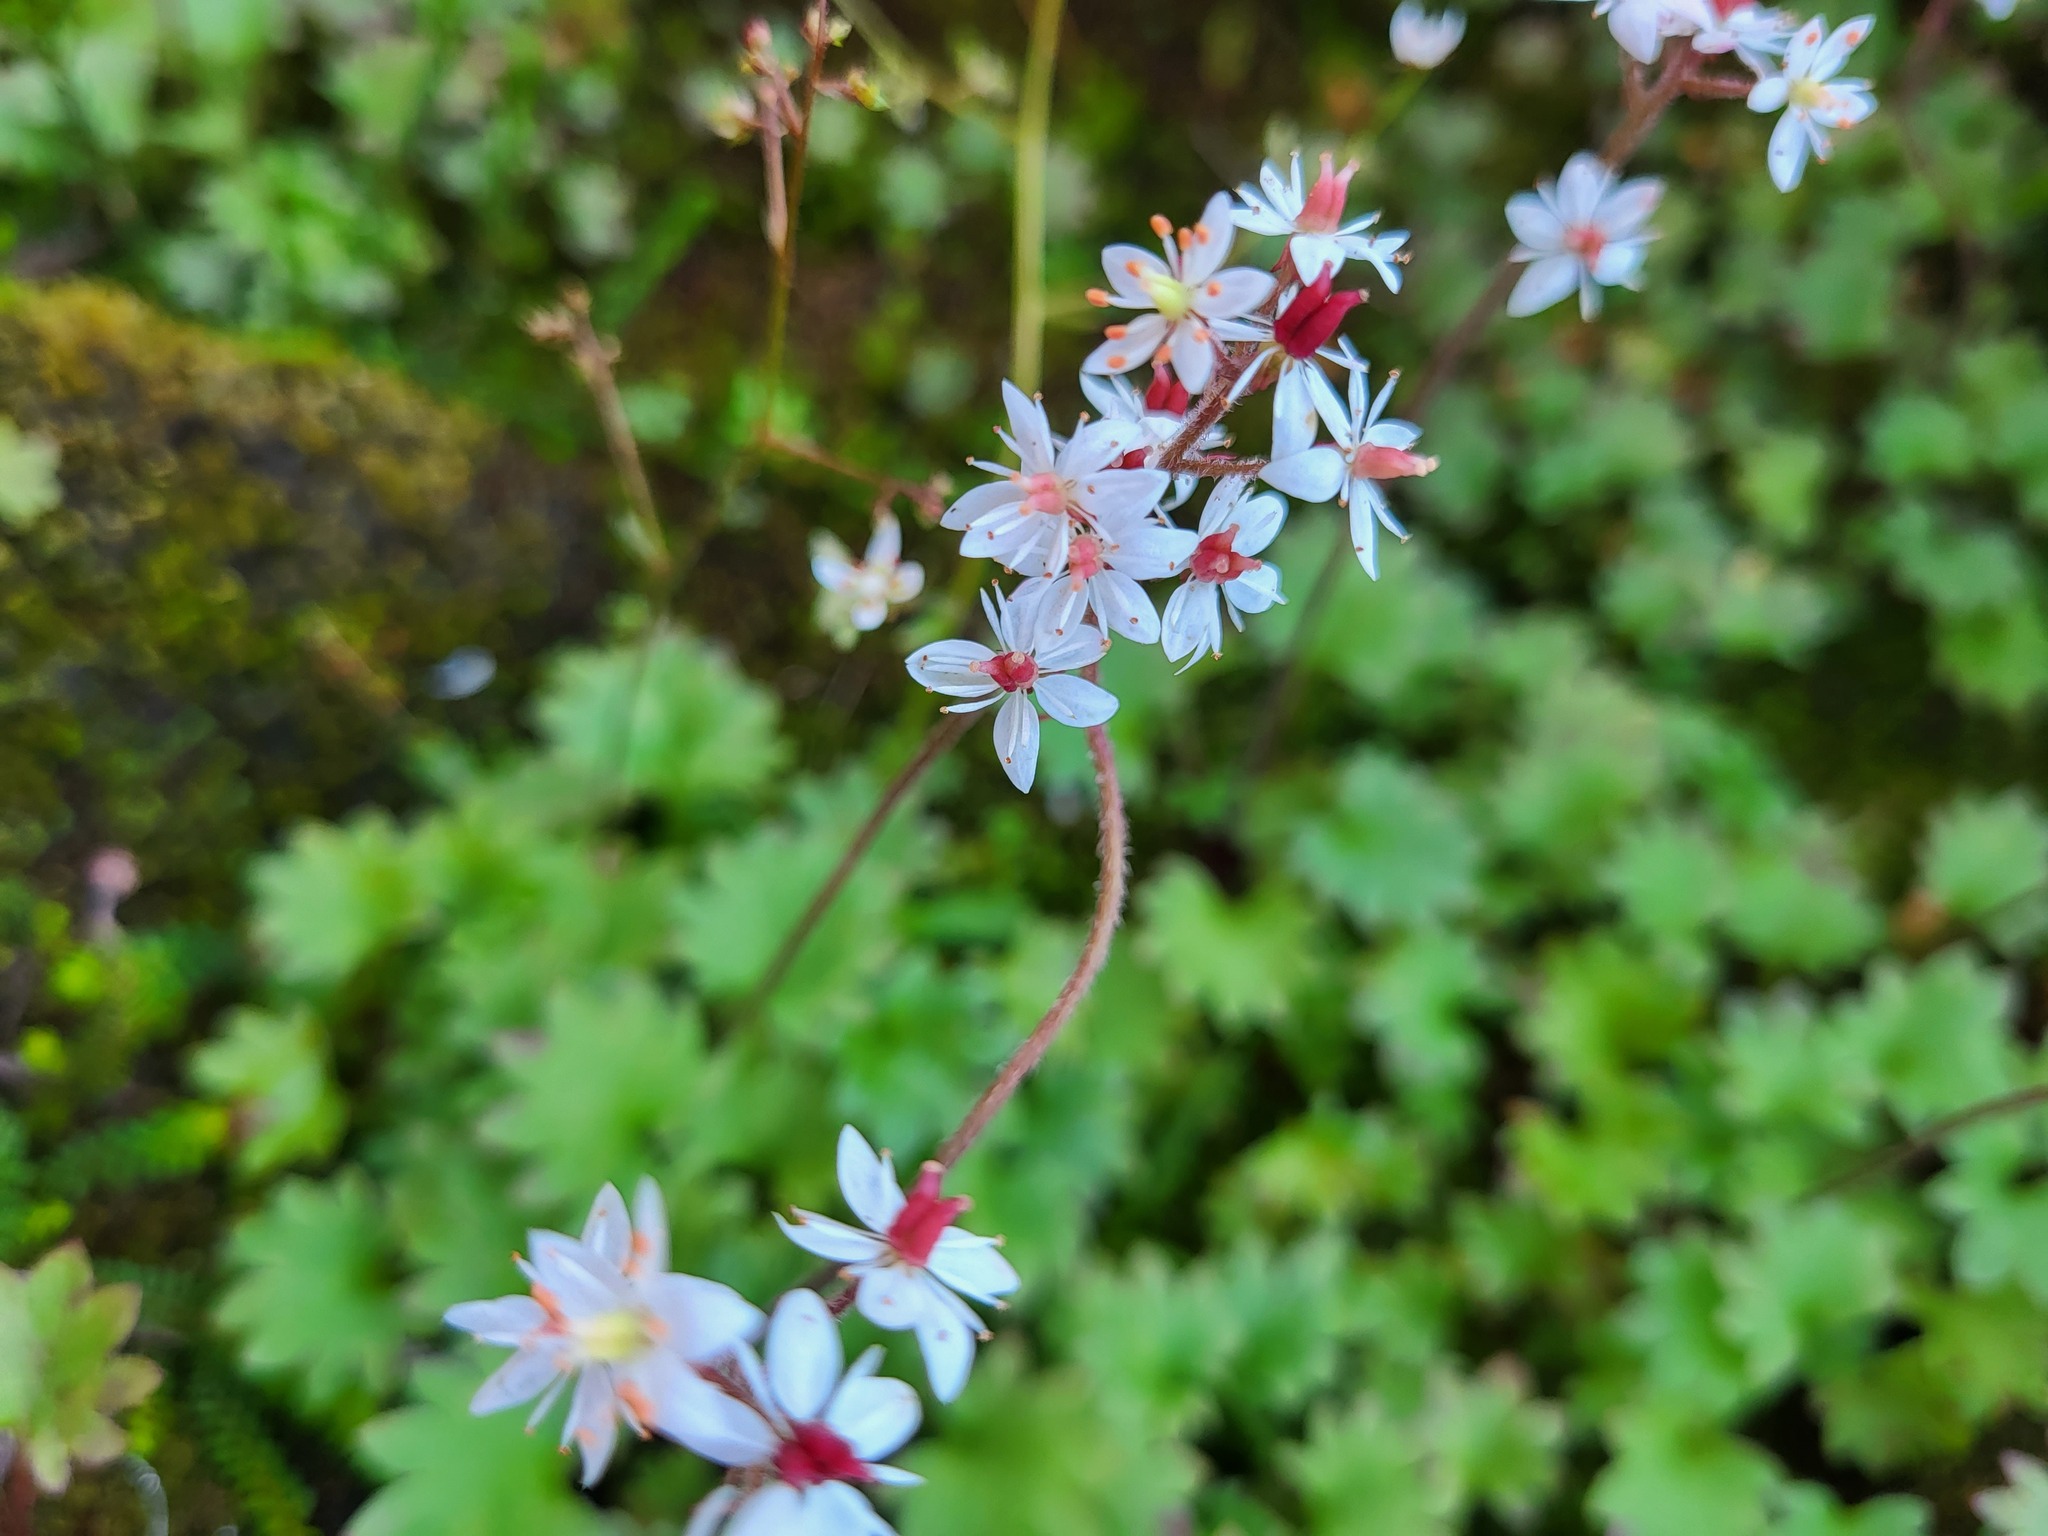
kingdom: Plantae
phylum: Tracheophyta
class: Magnoliopsida
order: Saxifragales
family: Saxifragaceae
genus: Micranthes
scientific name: Micranthes nelsoniana
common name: Nelson's saxifrage
